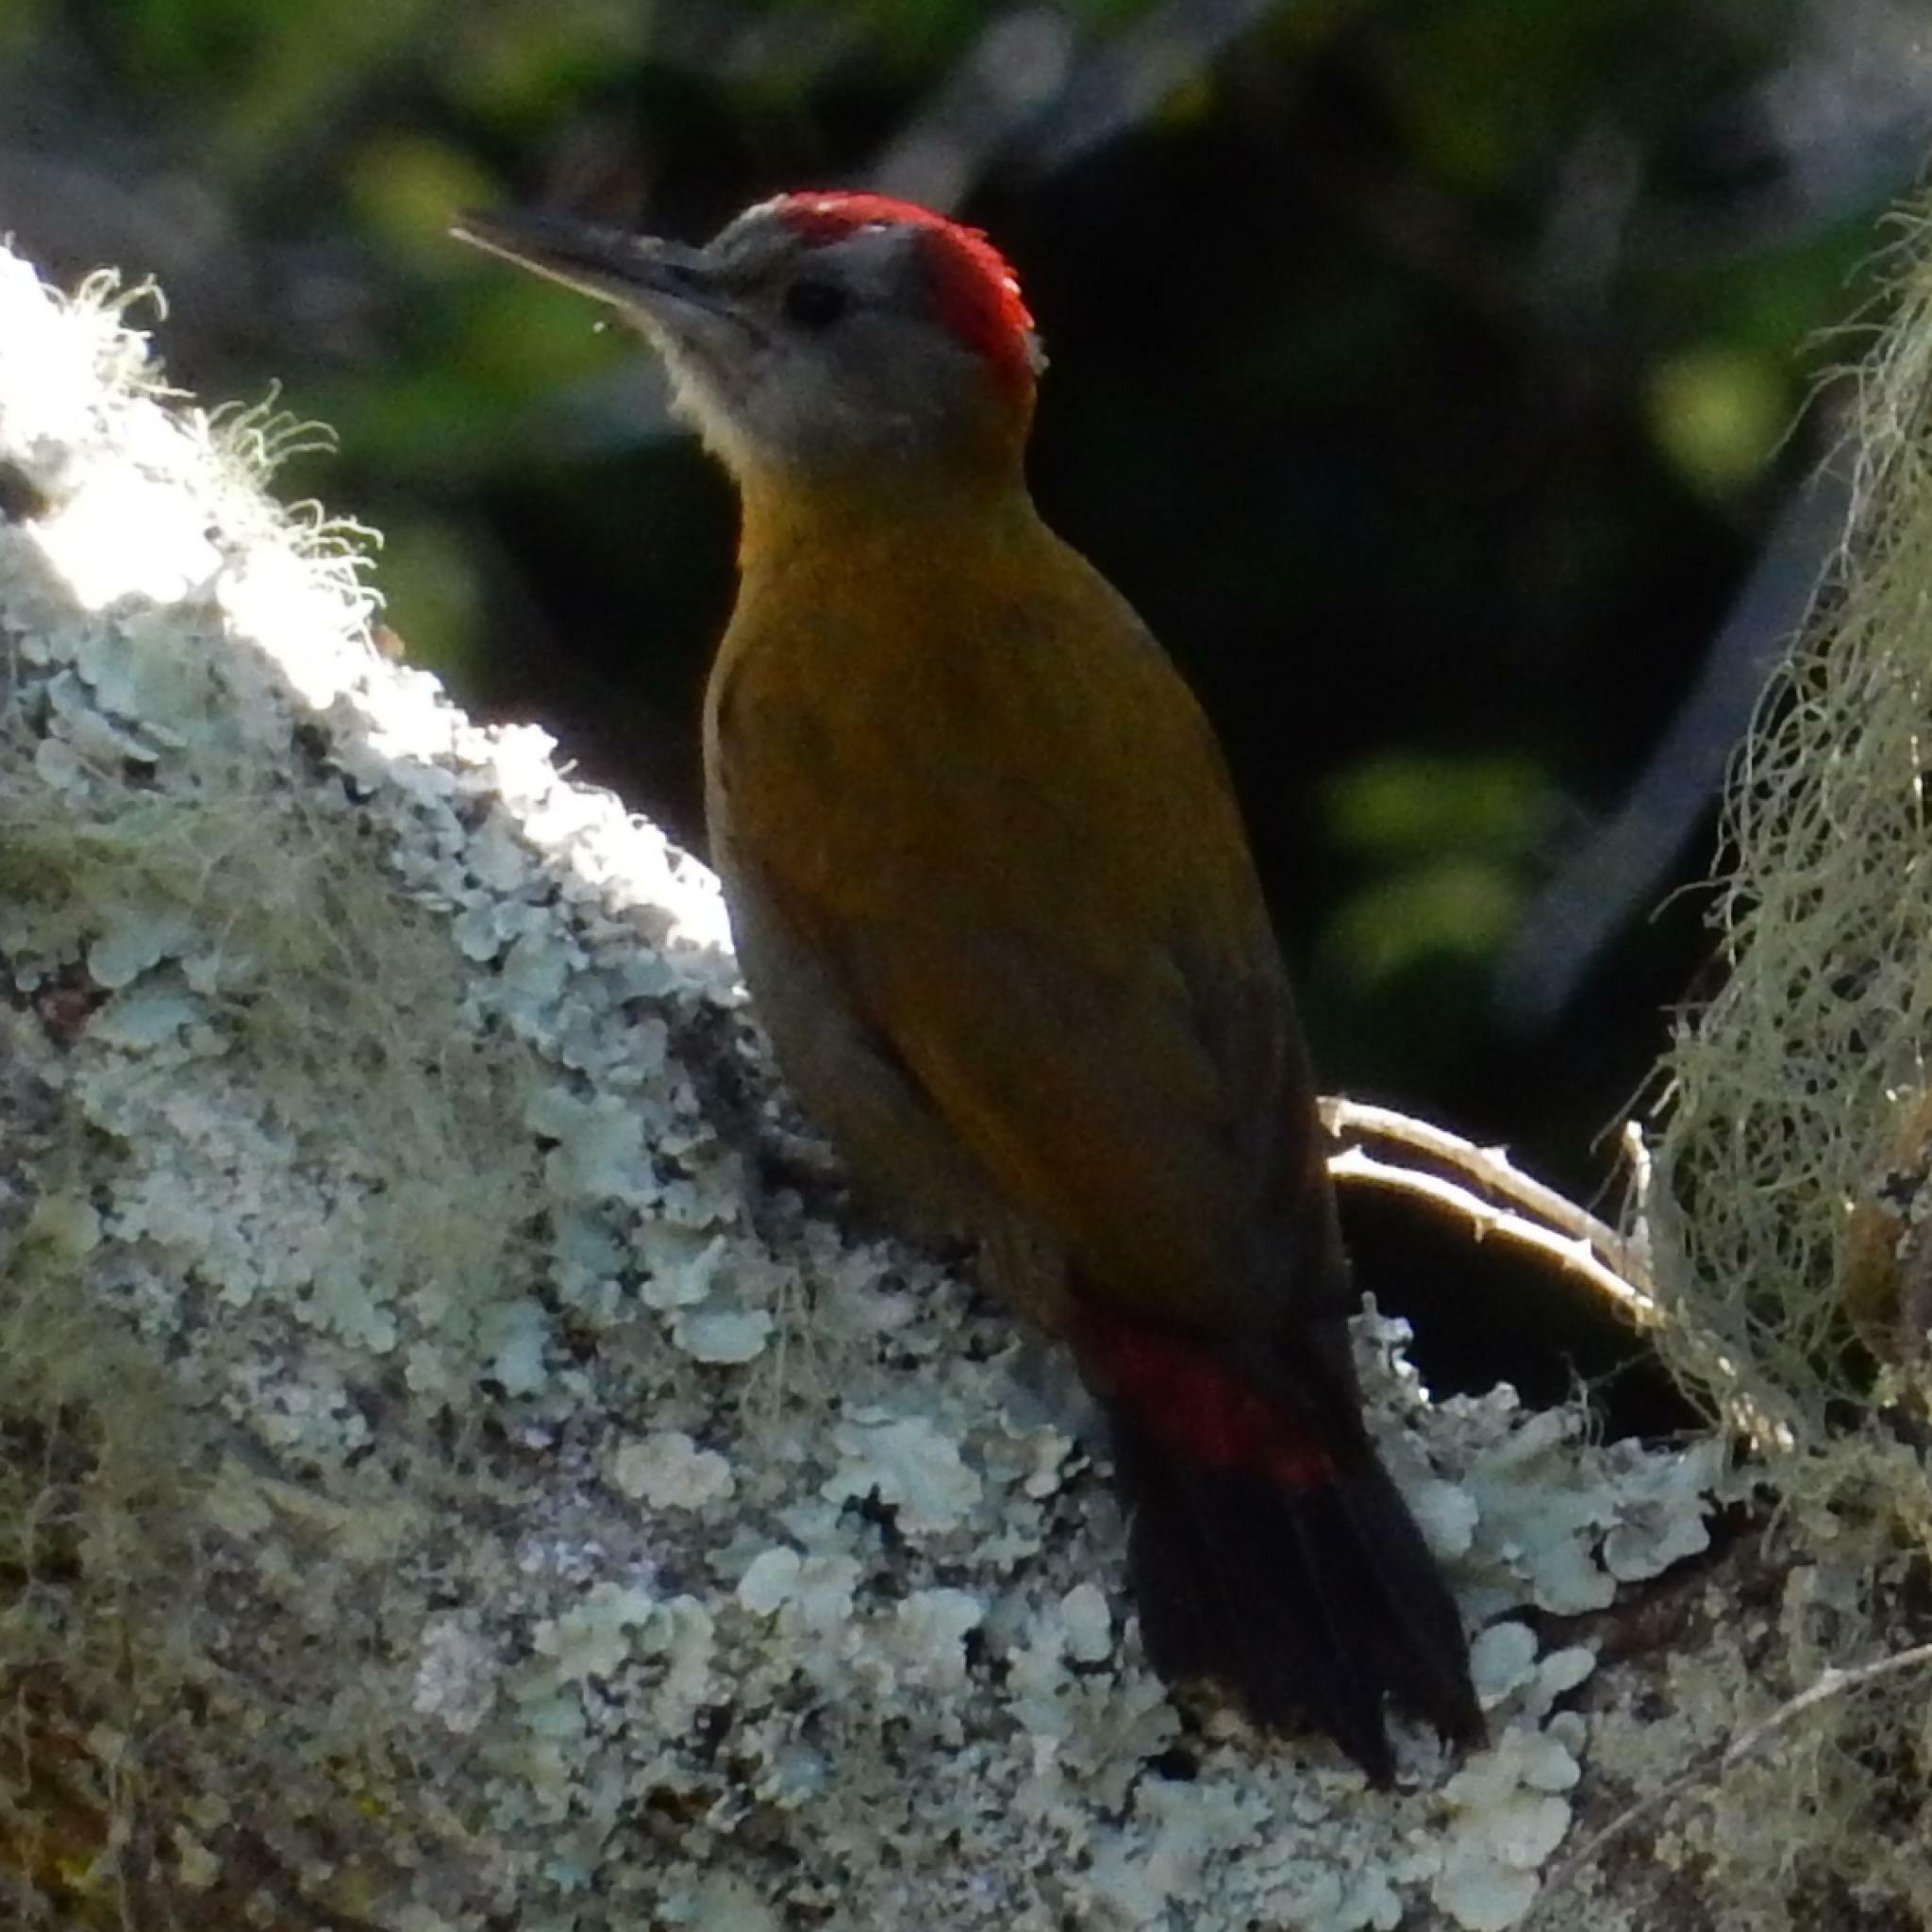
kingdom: Animalia
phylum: Chordata
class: Aves
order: Piciformes
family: Picidae
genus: Dendropicos
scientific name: Dendropicos griseocephalus
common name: Olive woodpecker
